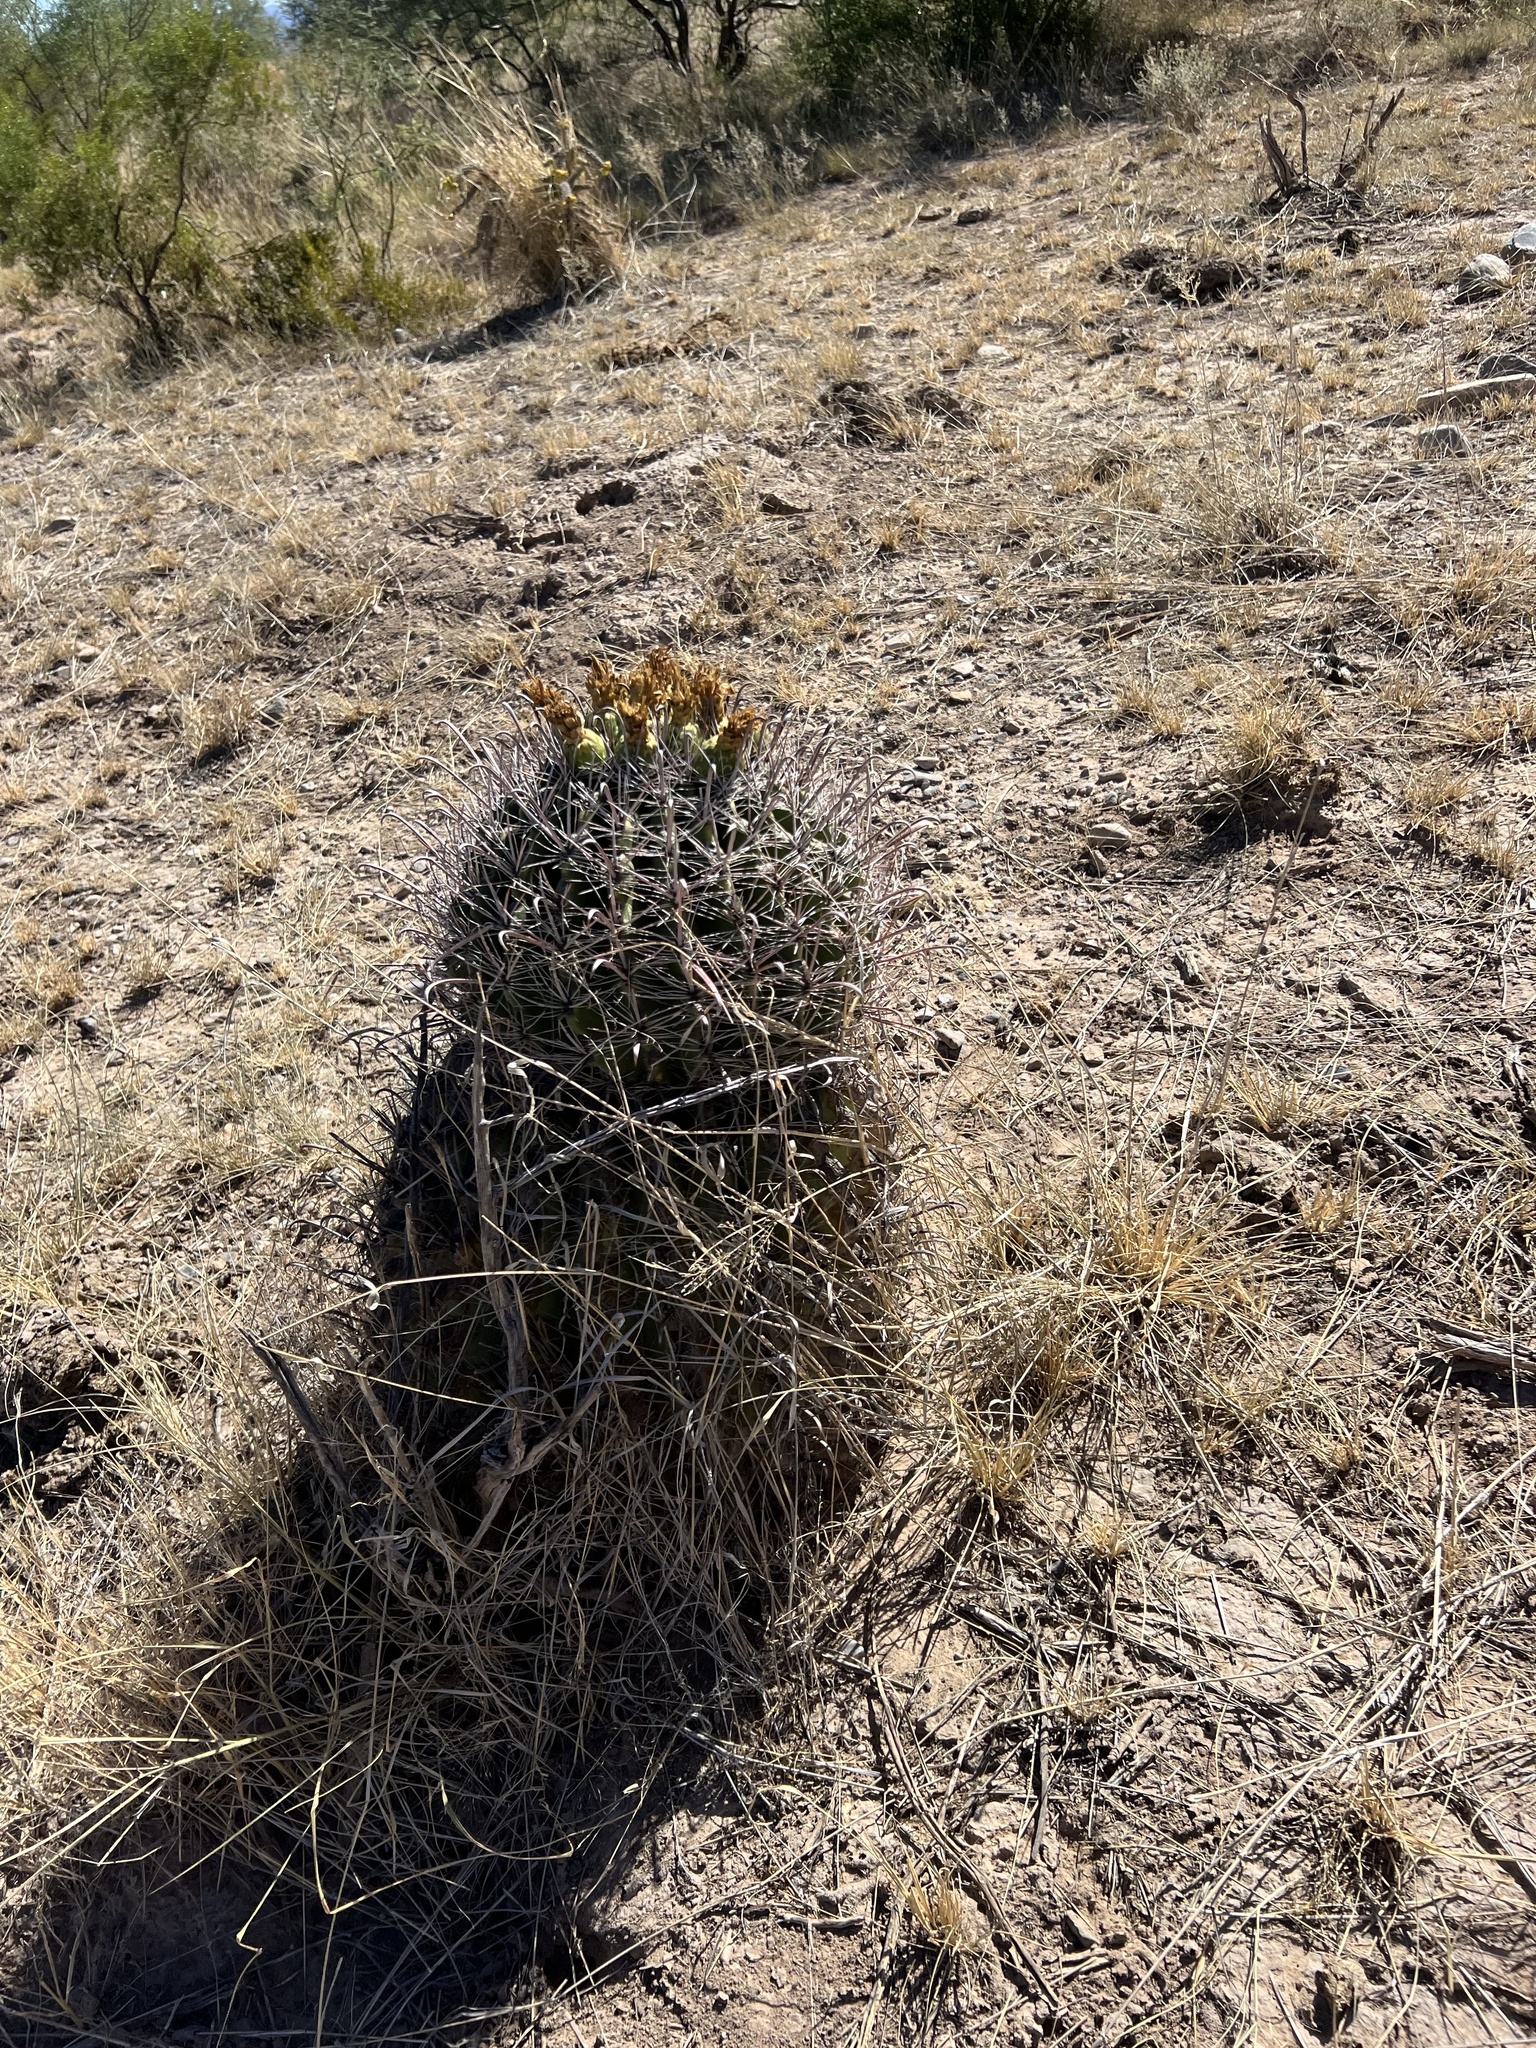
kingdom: Plantae
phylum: Tracheophyta
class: Magnoliopsida
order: Caryophyllales
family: Cactaceae
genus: Ferocactus
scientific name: Ferocactus wislizeni
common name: Candy barrel cactus
